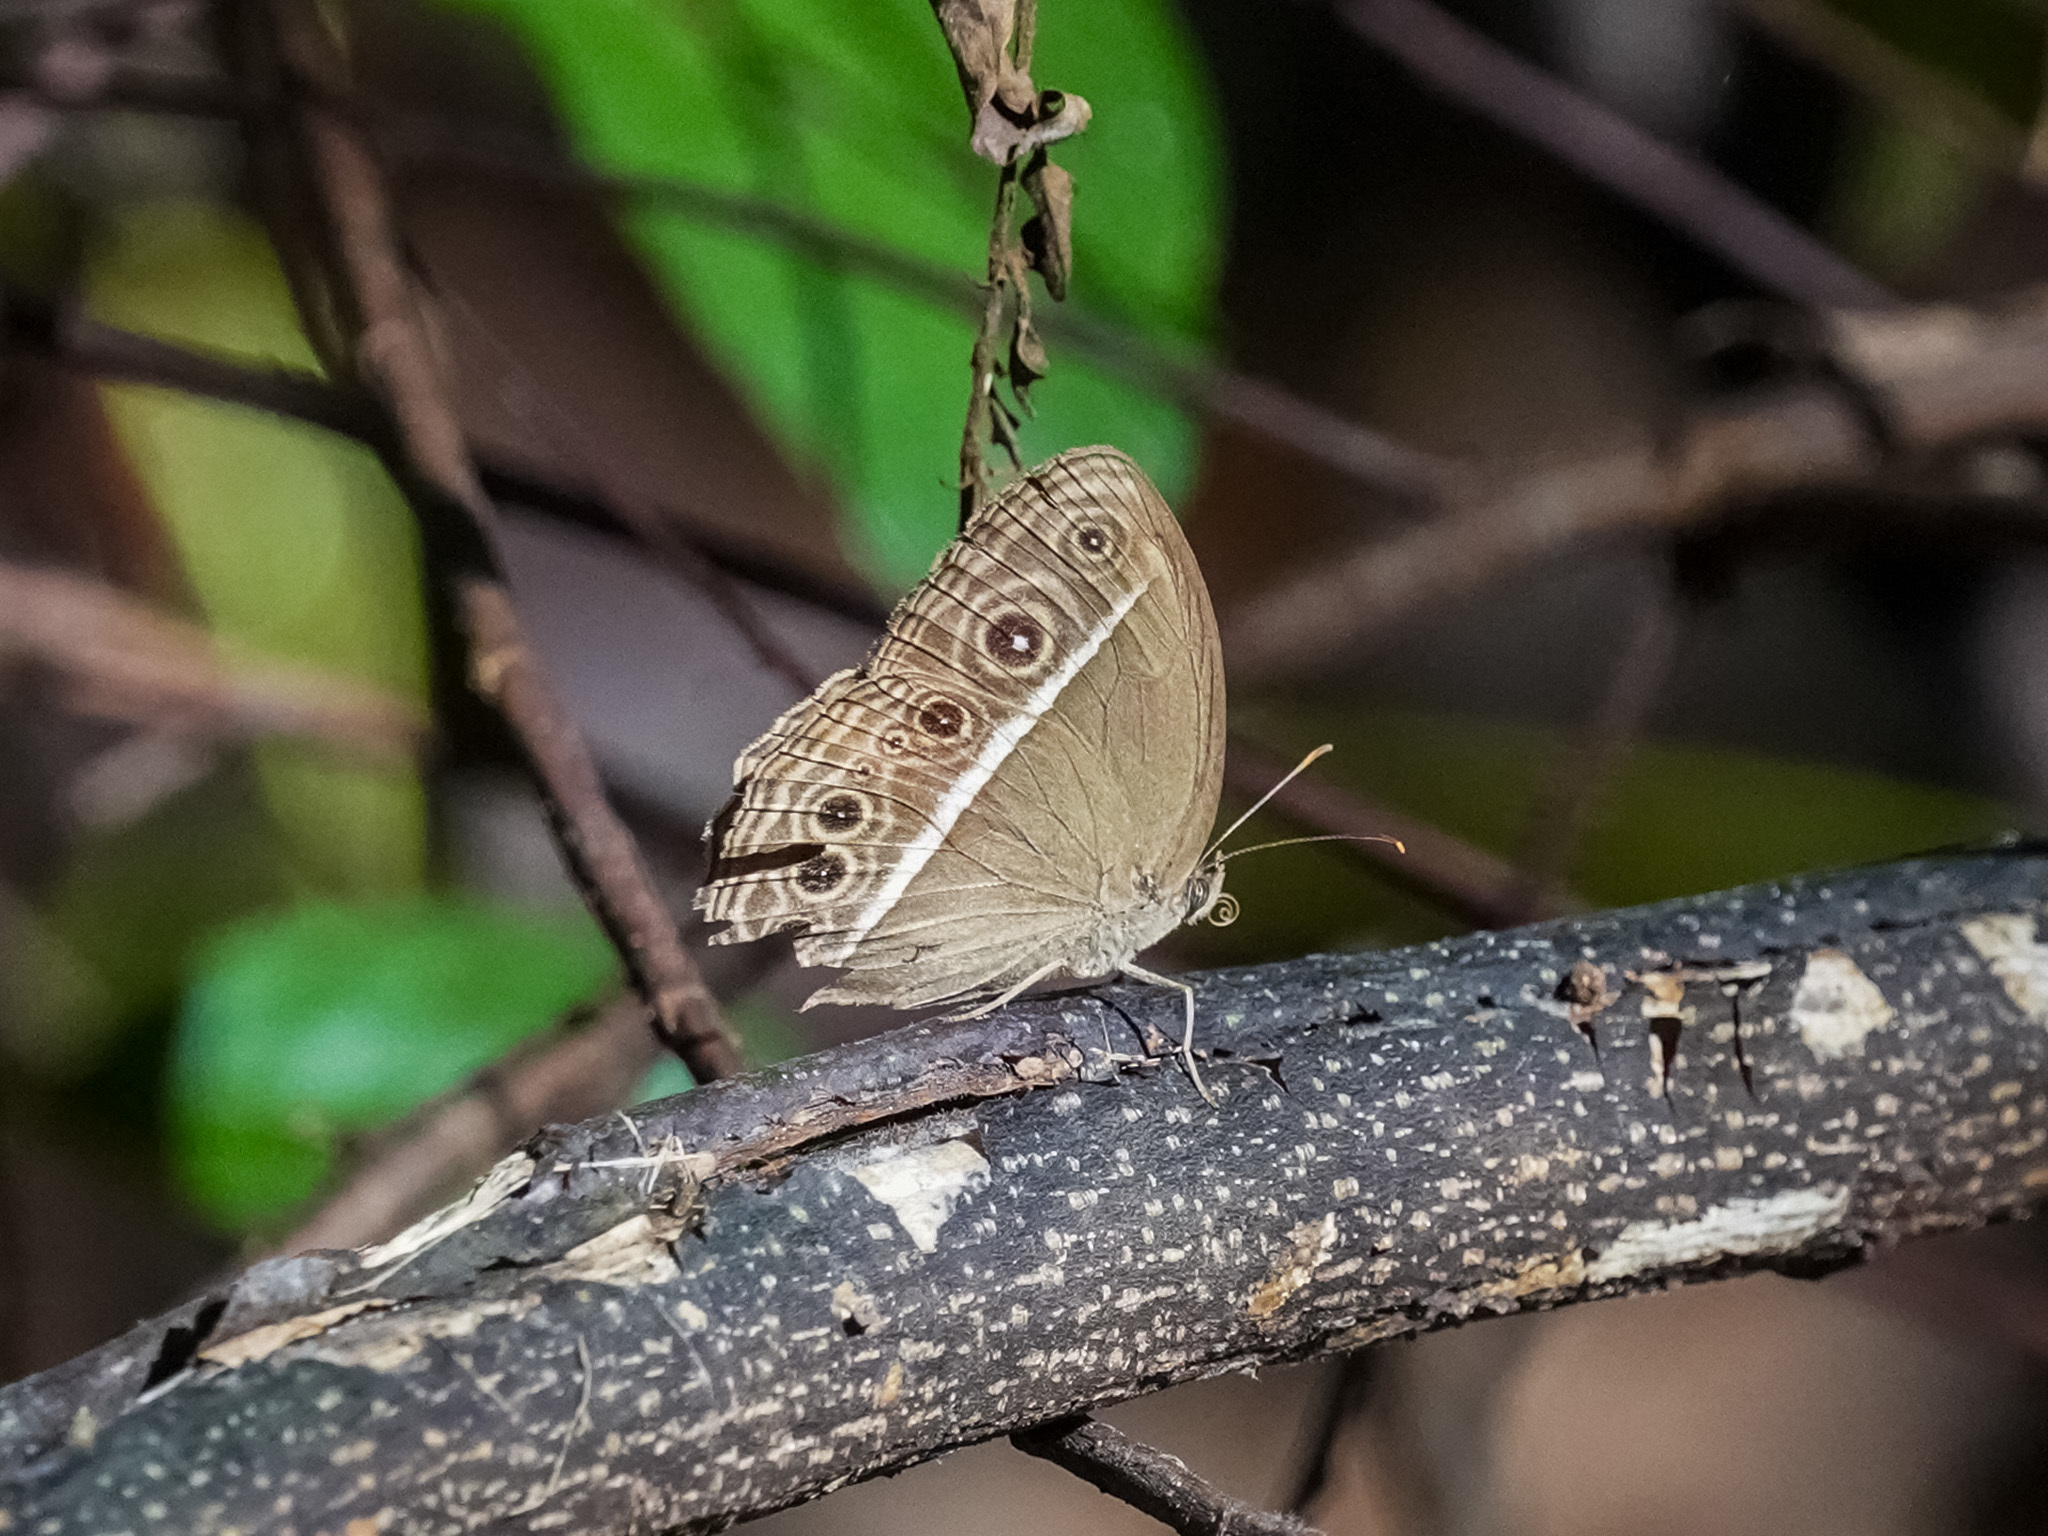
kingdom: Animalia
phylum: Arthropoda
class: Insecta
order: Lepidoptera
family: Nymphalidae
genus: Mycalesis
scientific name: Mycalesis mineus
